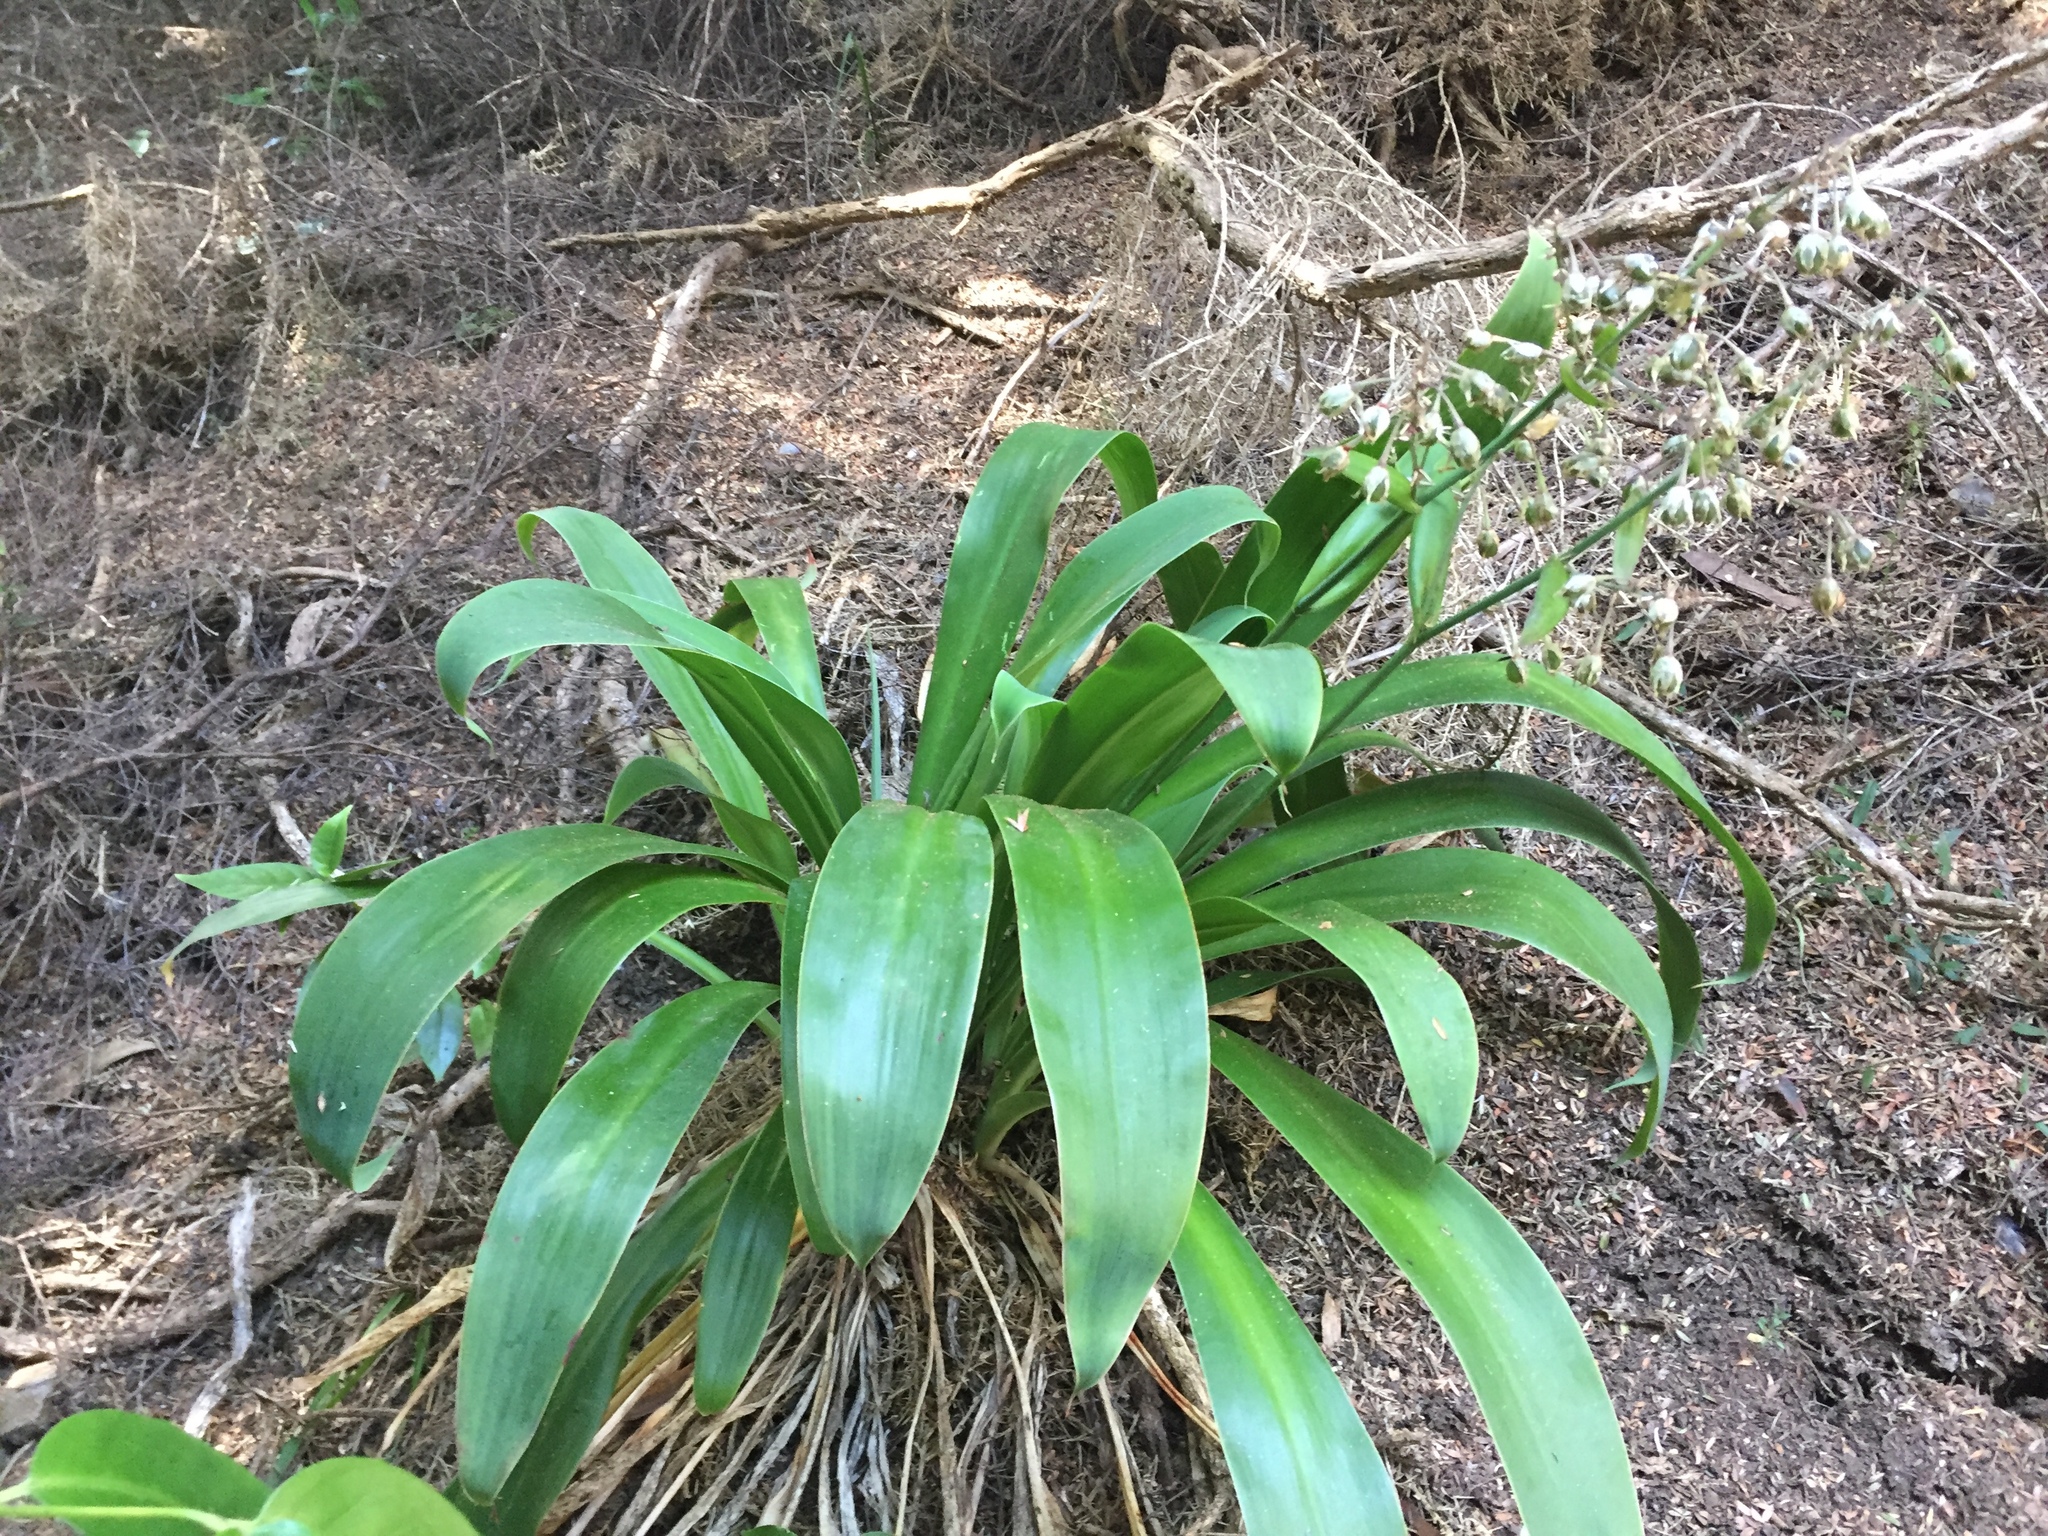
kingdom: Plantae
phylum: Tracheophyta
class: Liliopsida
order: Asparagales
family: Asparagaceae
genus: Arthropodium
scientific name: Arthropodium cirratum
